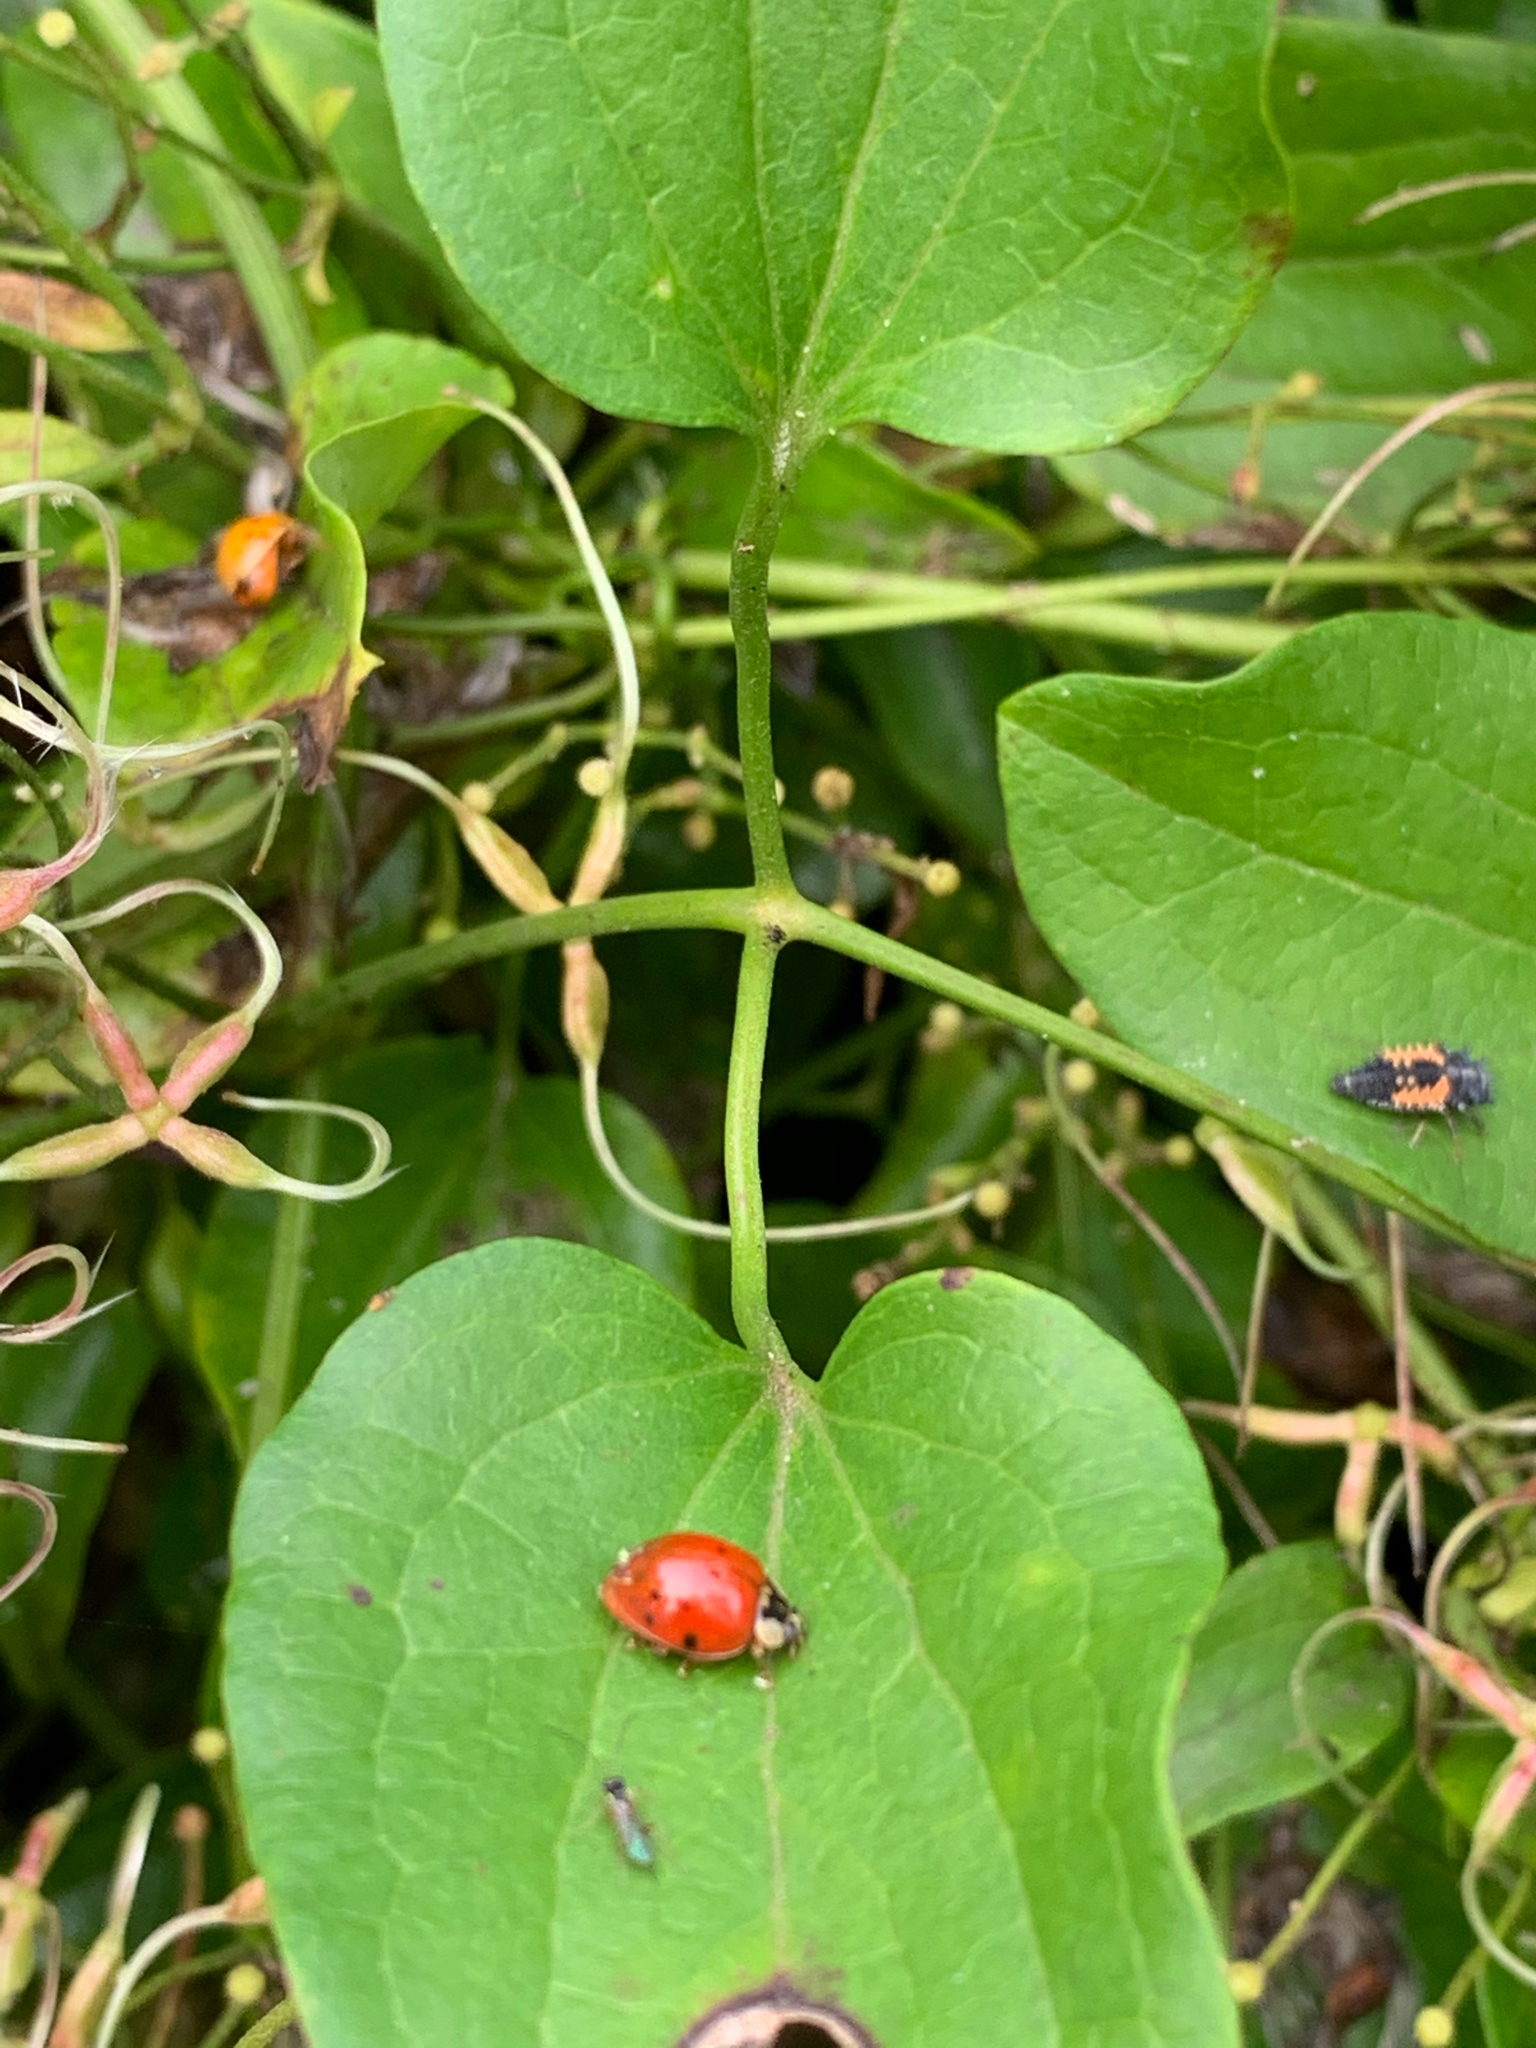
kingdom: Animalia
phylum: Arthropoda
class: Insecta
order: Coleoptera
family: Coccinellidae
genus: Harmonia
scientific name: Harmonia axyridis
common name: Harlequin ladybird
